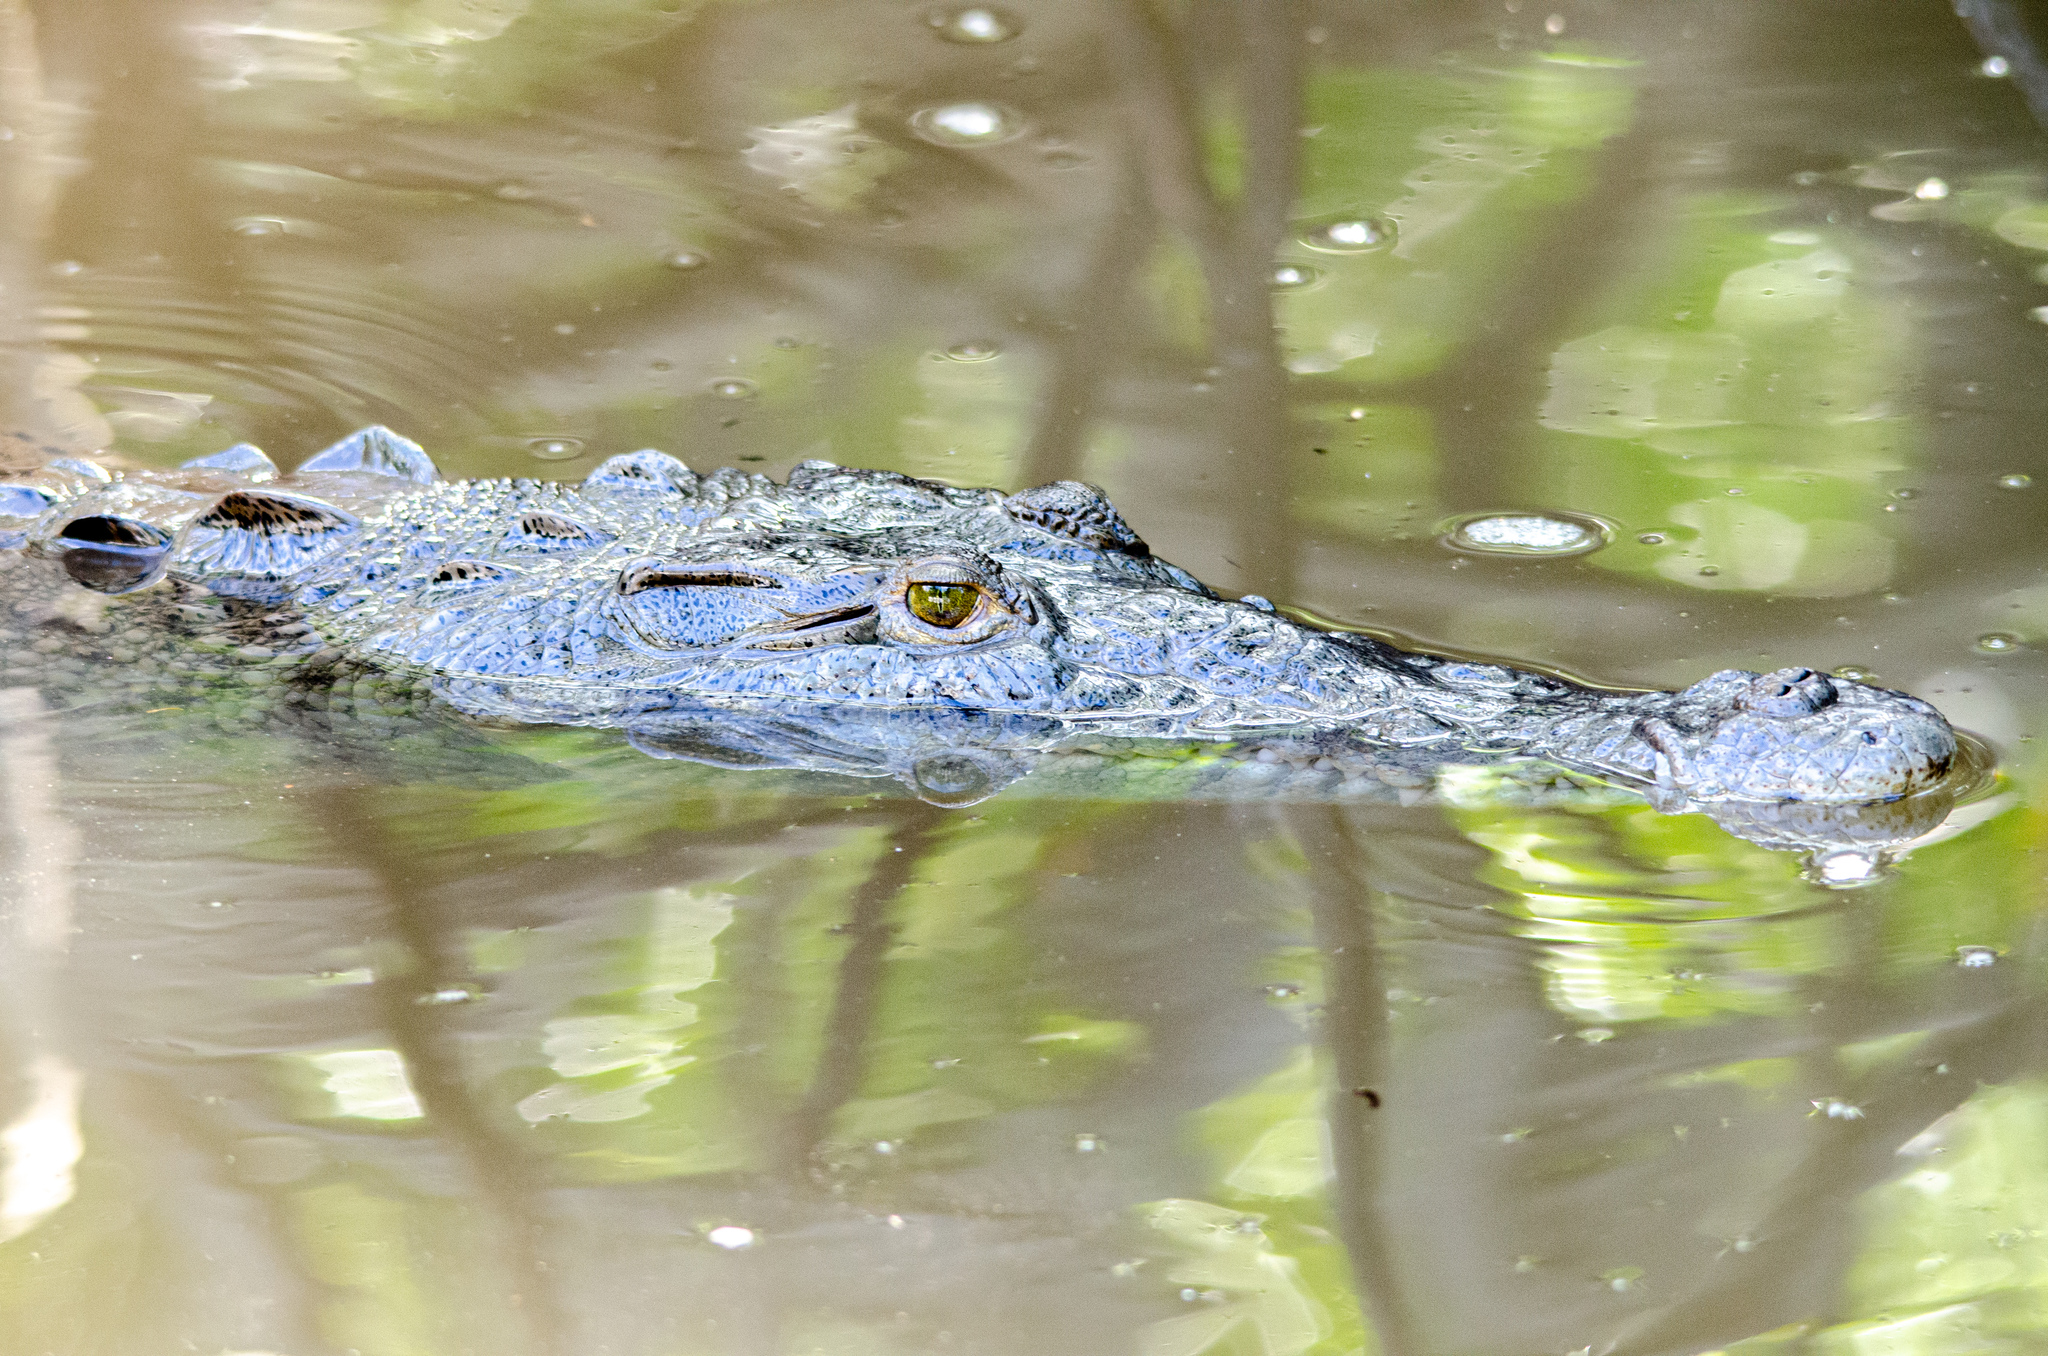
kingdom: Animalia
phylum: Chordata
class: Crocodylia
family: Crocodylidae
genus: Crocodylus
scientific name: Crocodylus acutus
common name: American crocodile
